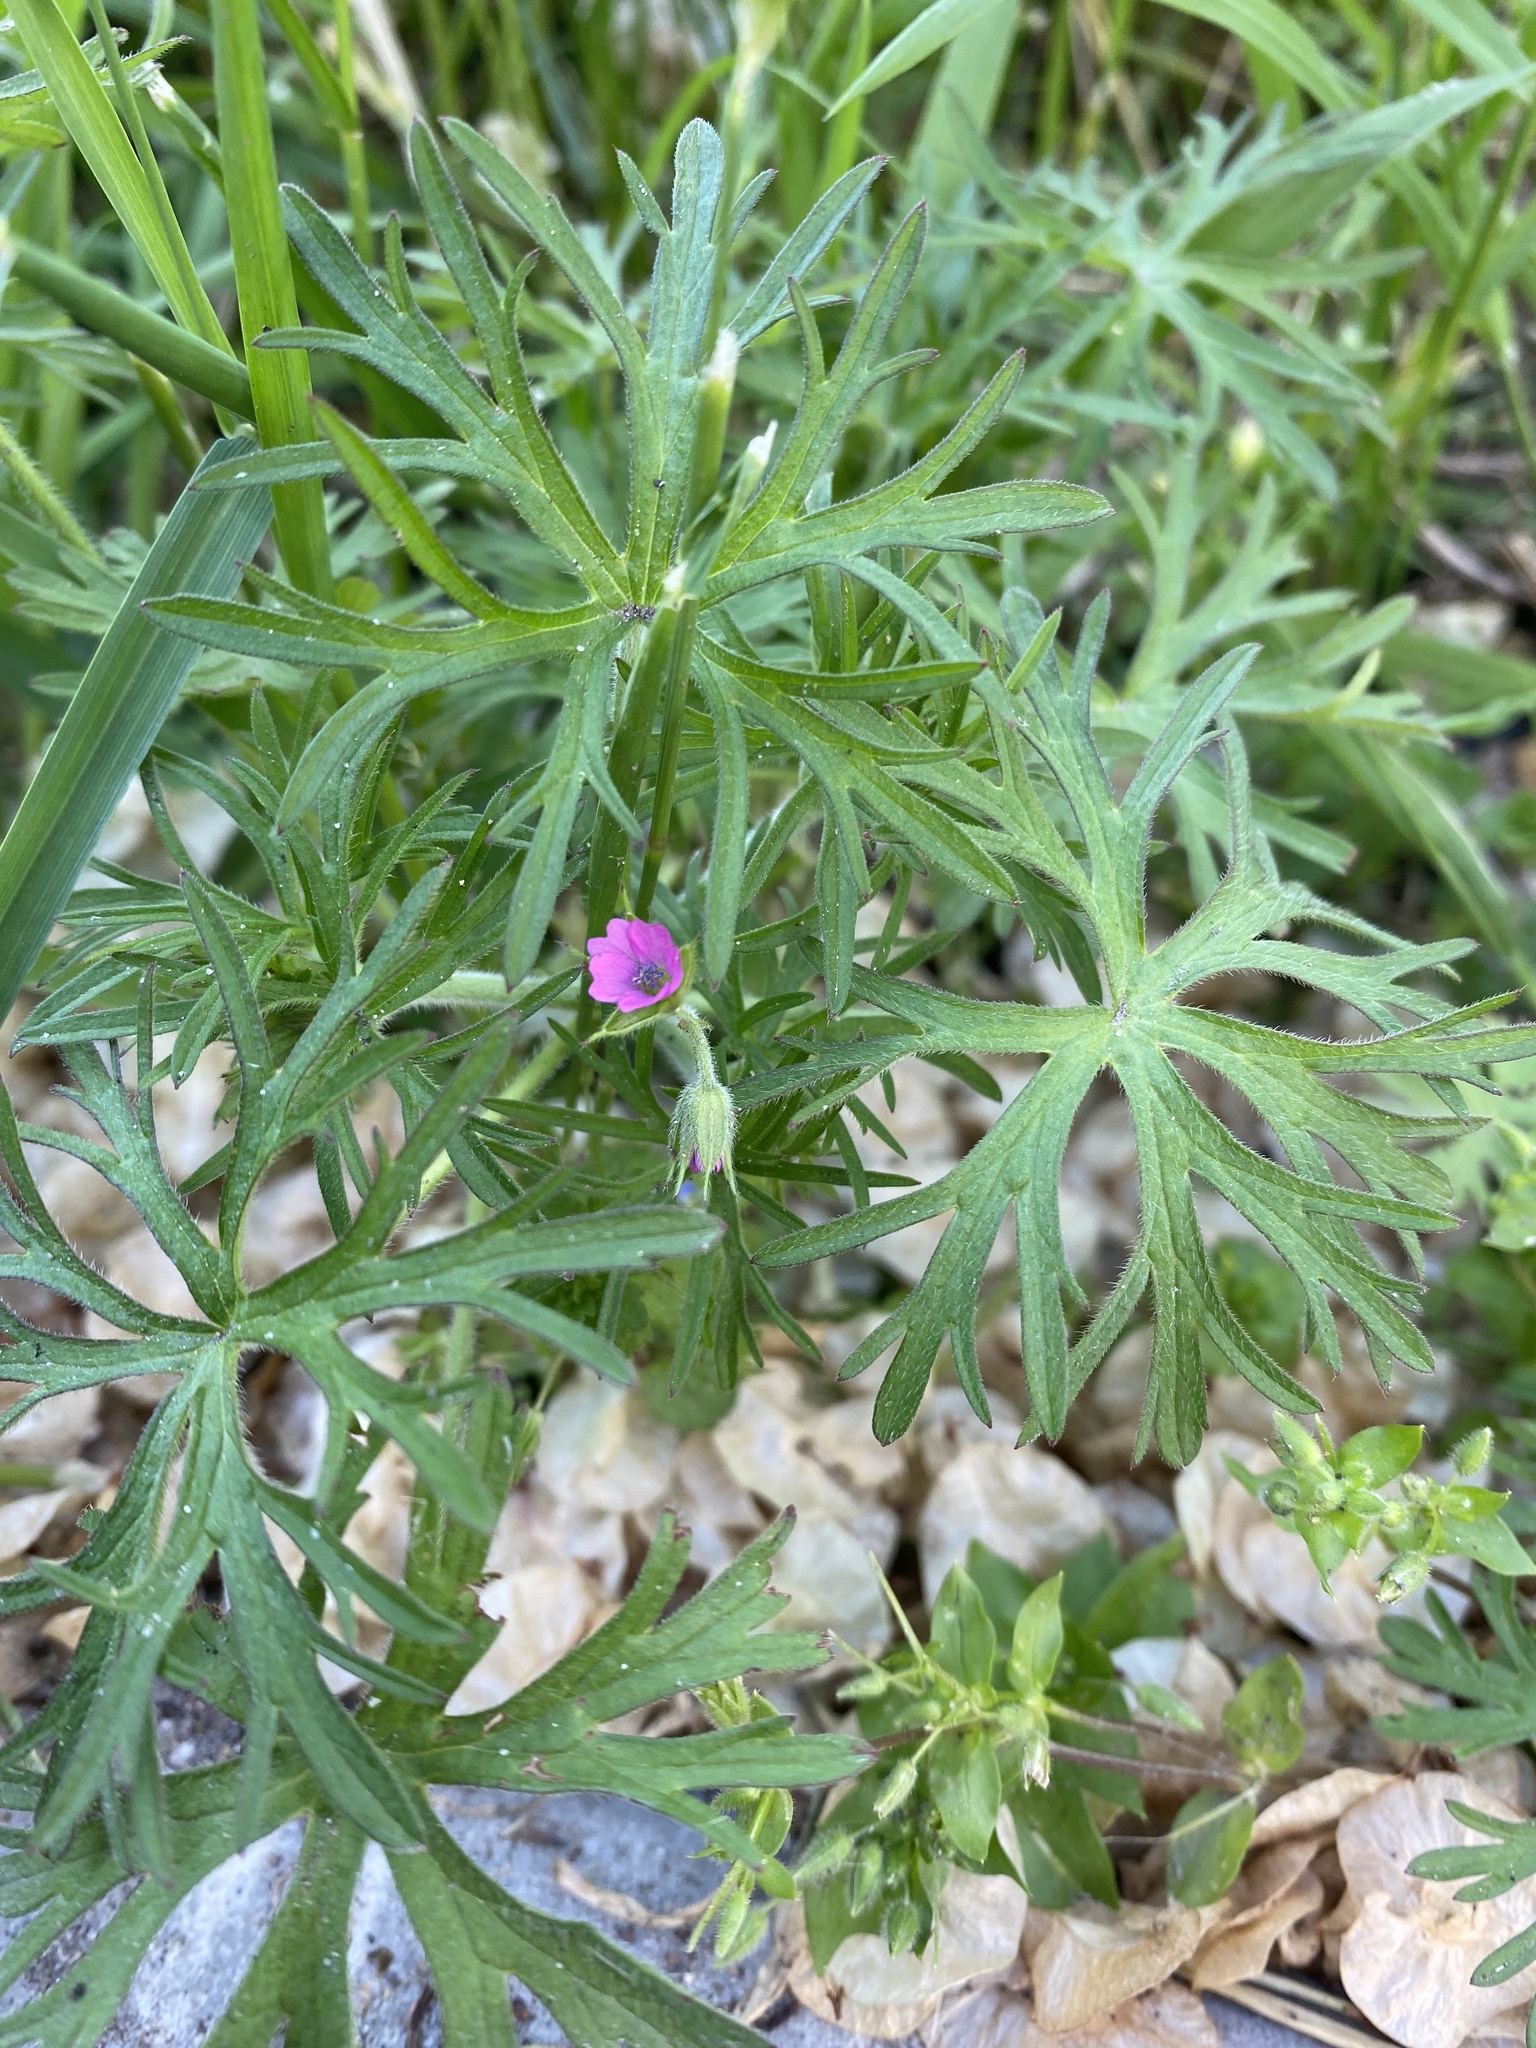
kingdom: Plantae
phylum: Tracheophyta
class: Magnoliopsida
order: Geraniales
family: Geraniaceae
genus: Geranium
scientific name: Geranium dissectum
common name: Cut-leaved crane's-bill
